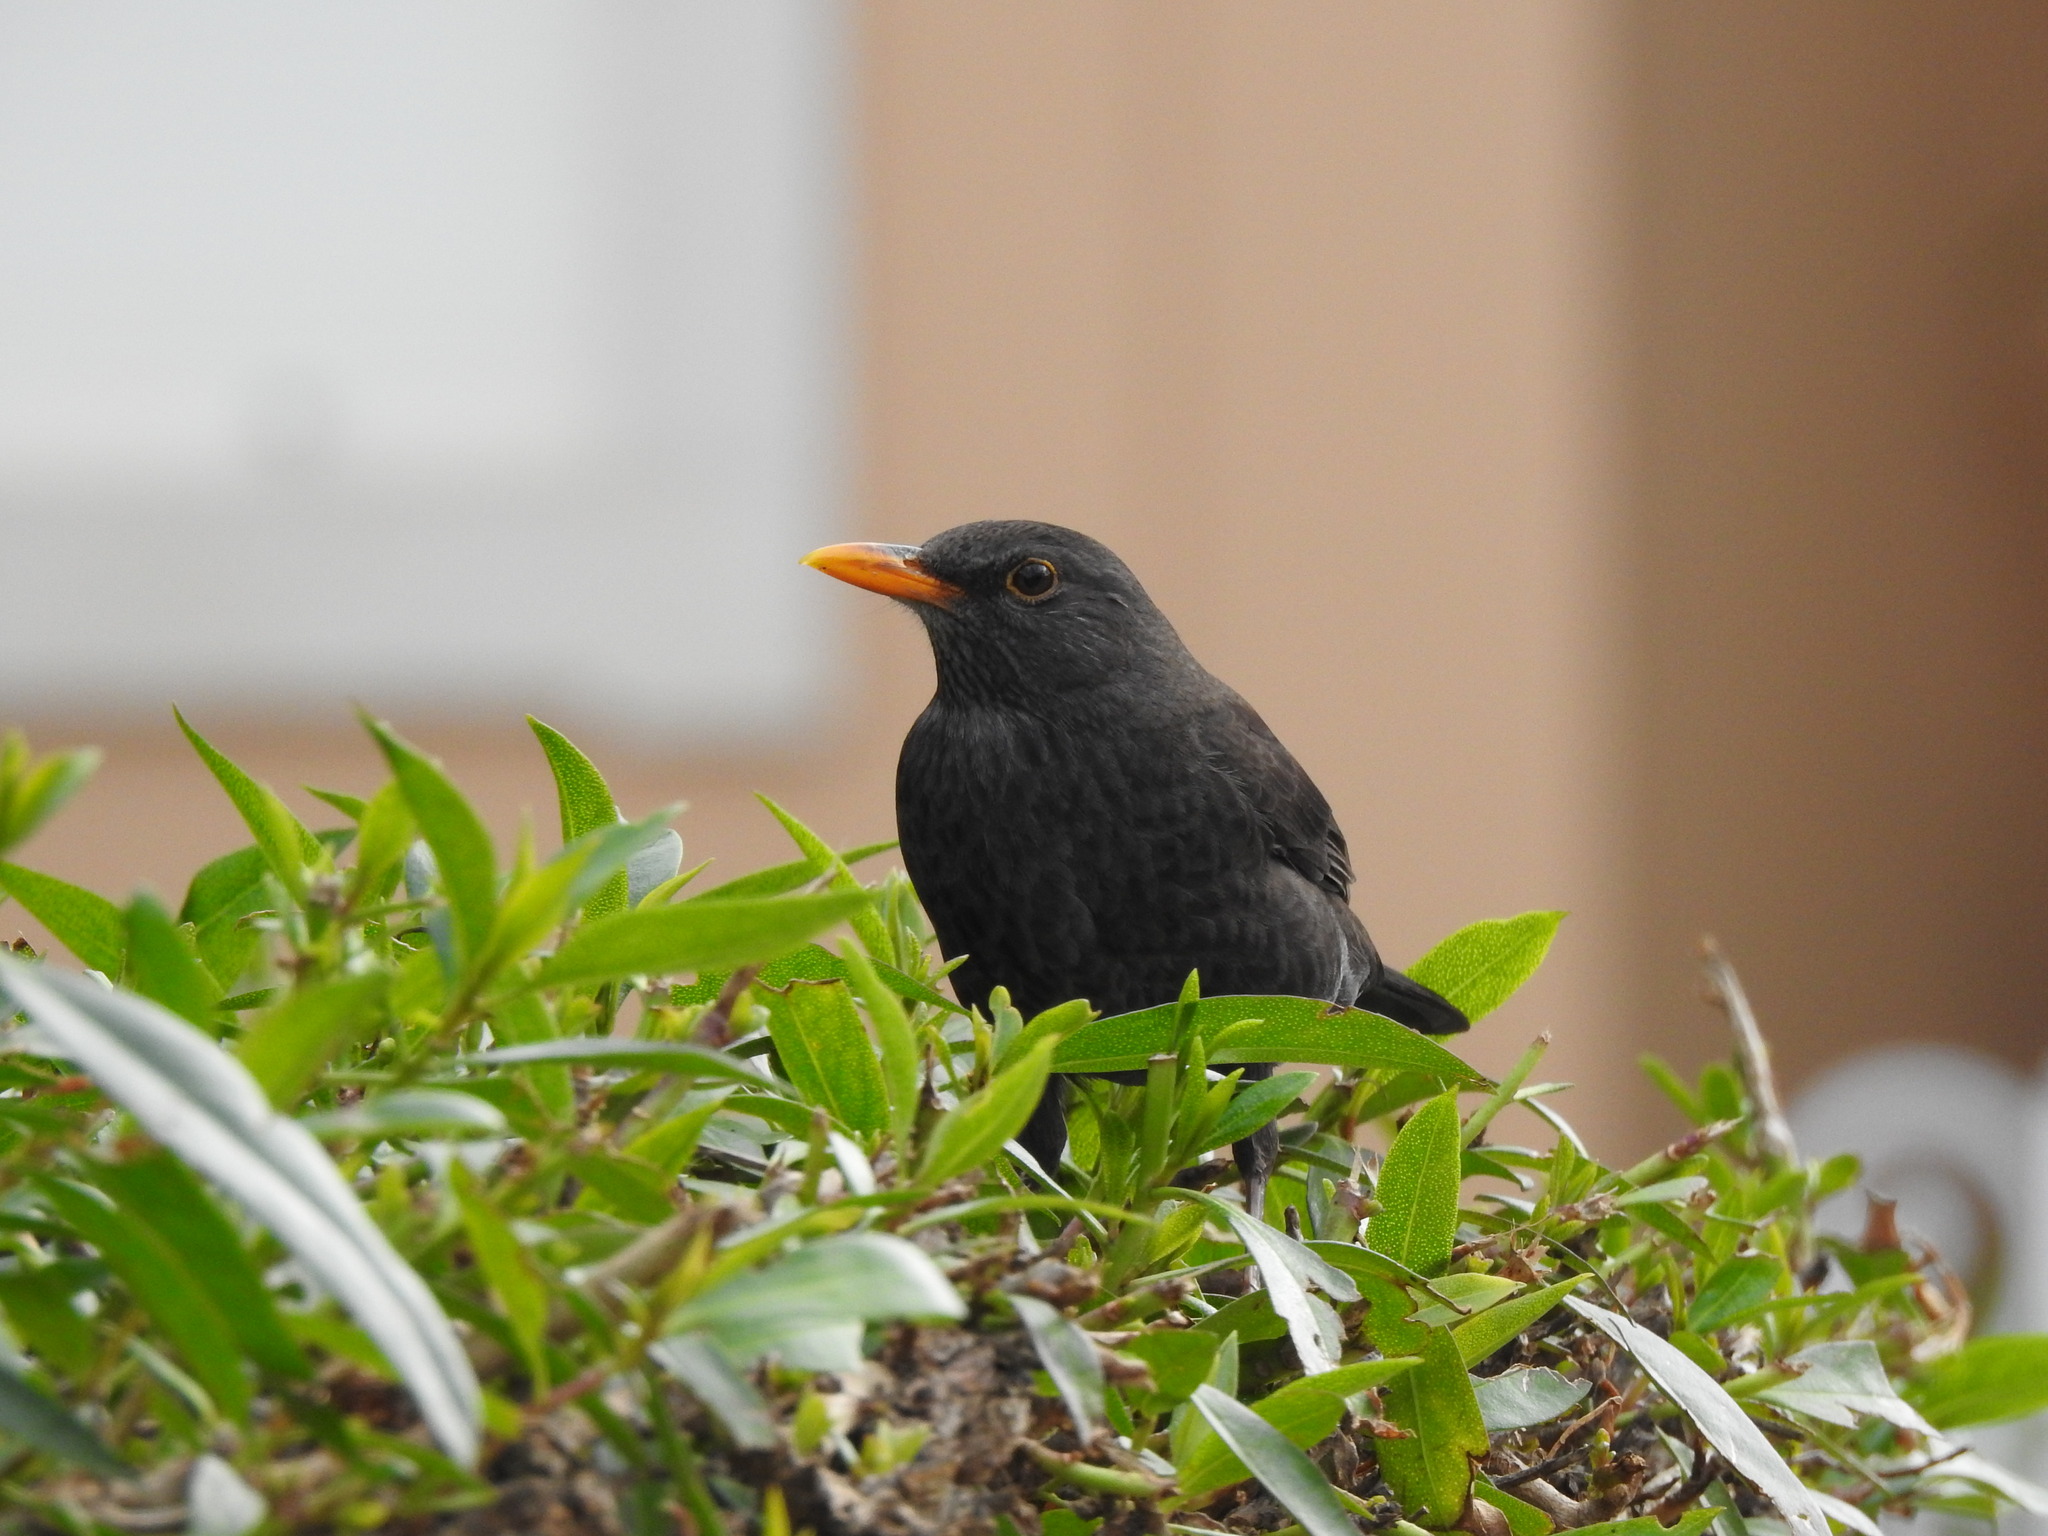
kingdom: Animalia
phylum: Chordata
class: Aves
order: Passeriformes
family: Turdidae
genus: Turdus
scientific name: Turdus merula
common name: Common blackbird
